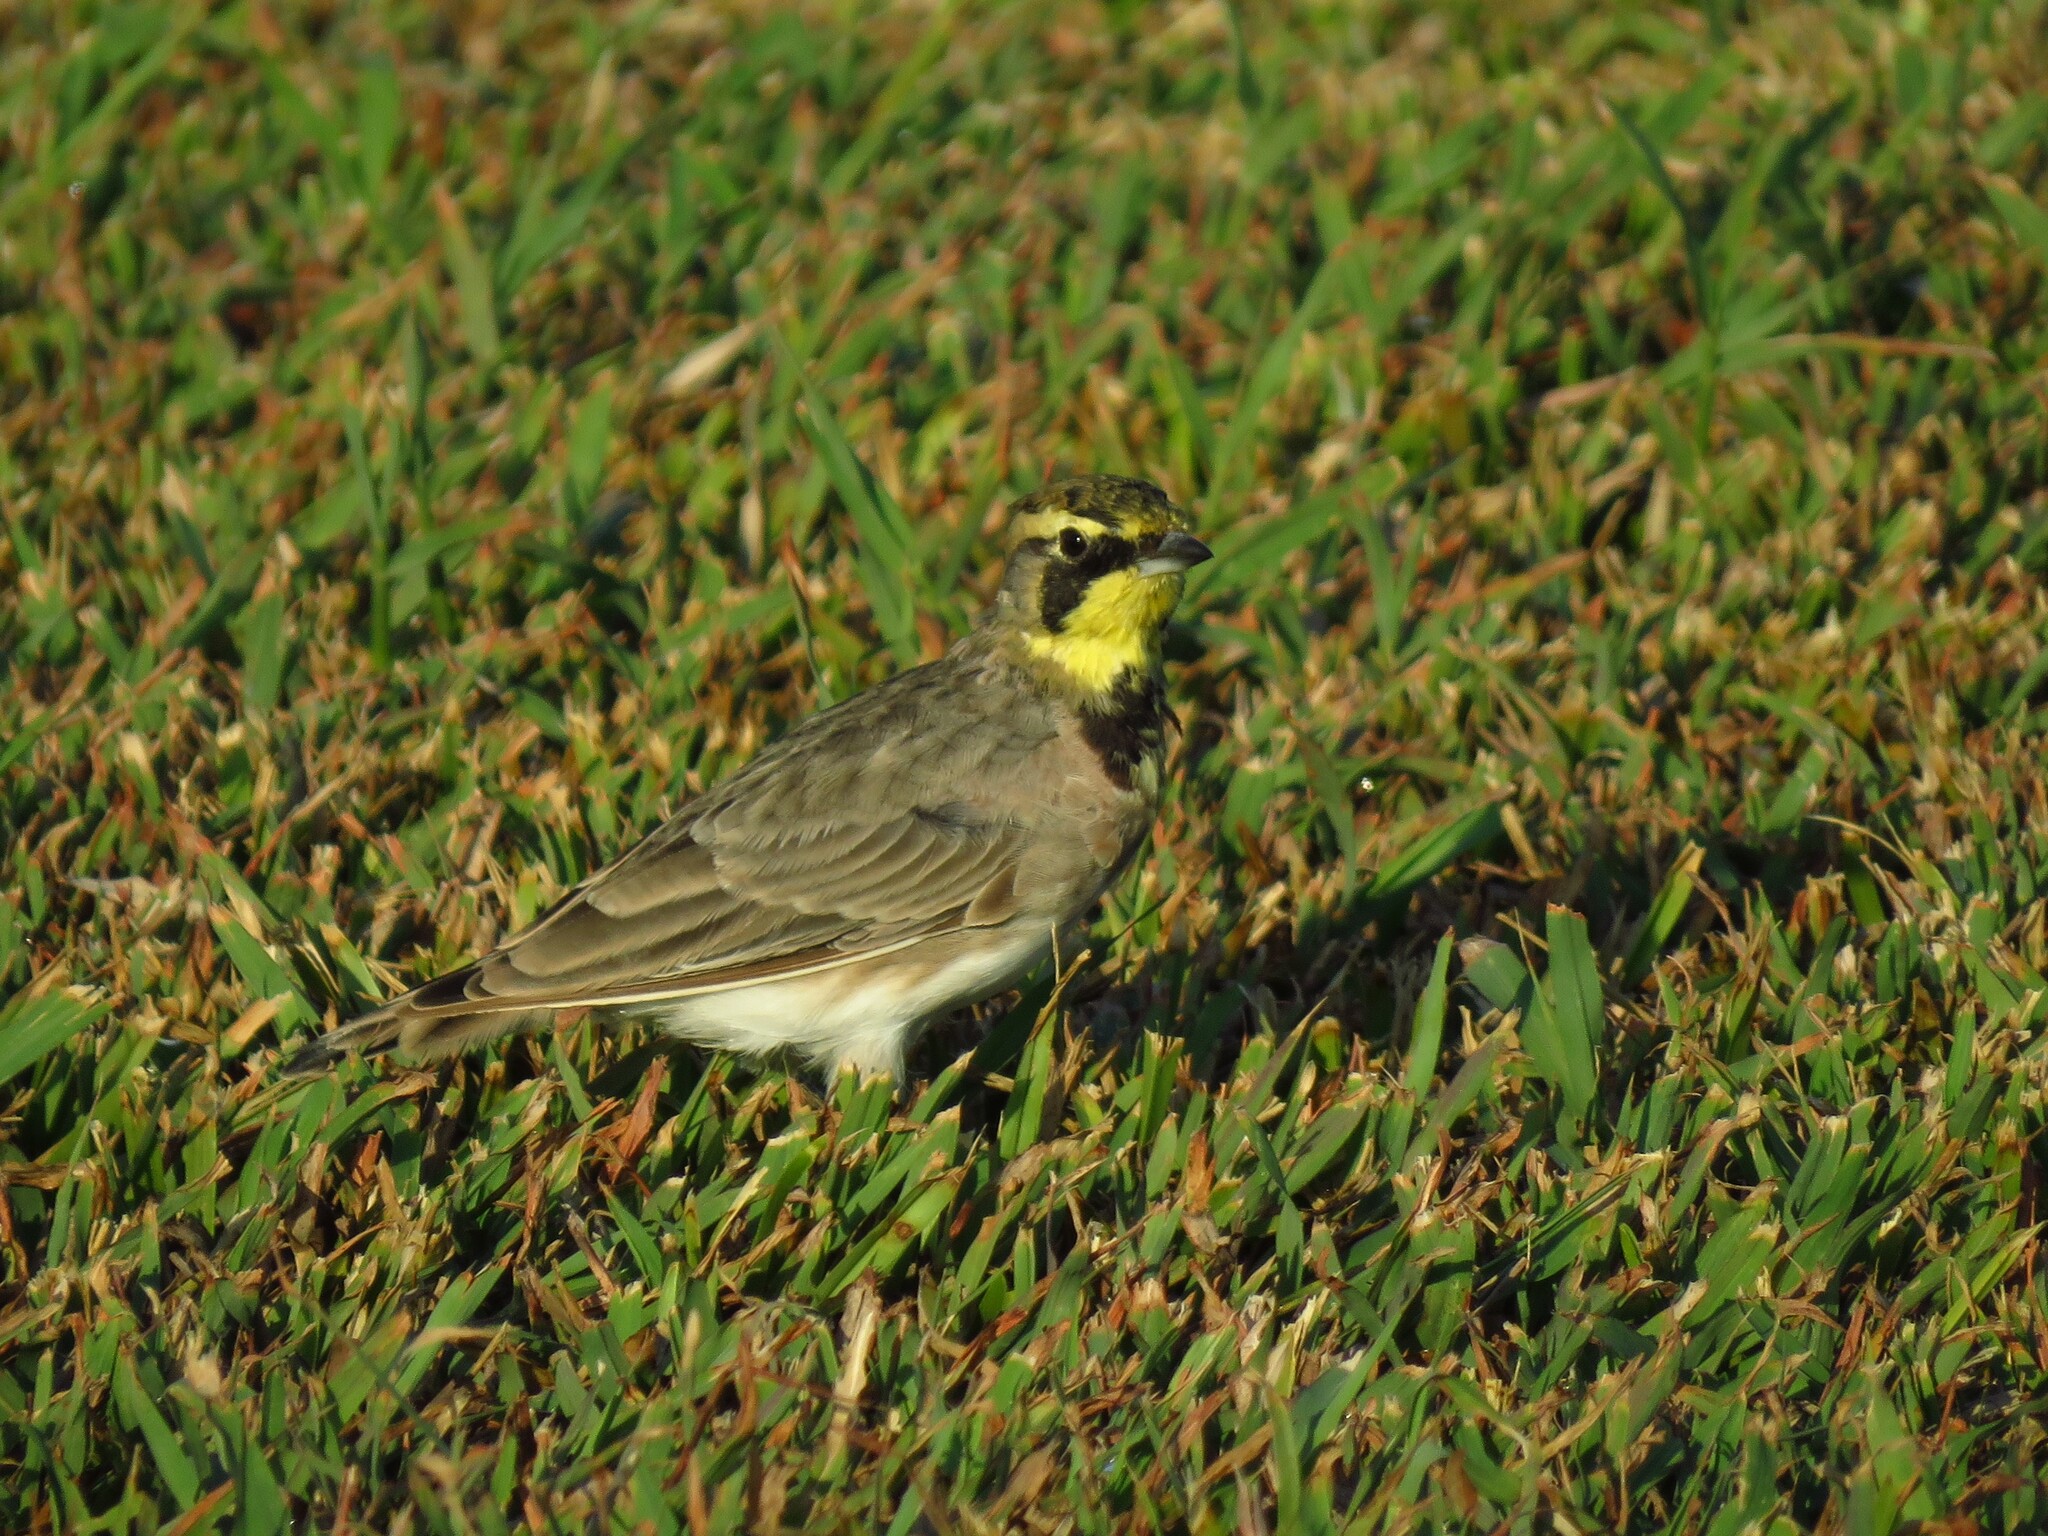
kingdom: Animalia
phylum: Chordata
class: Aves
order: Passeriformes
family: Alaudidae
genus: Eremophila
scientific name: Eremophila alpestris
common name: Horned lark
